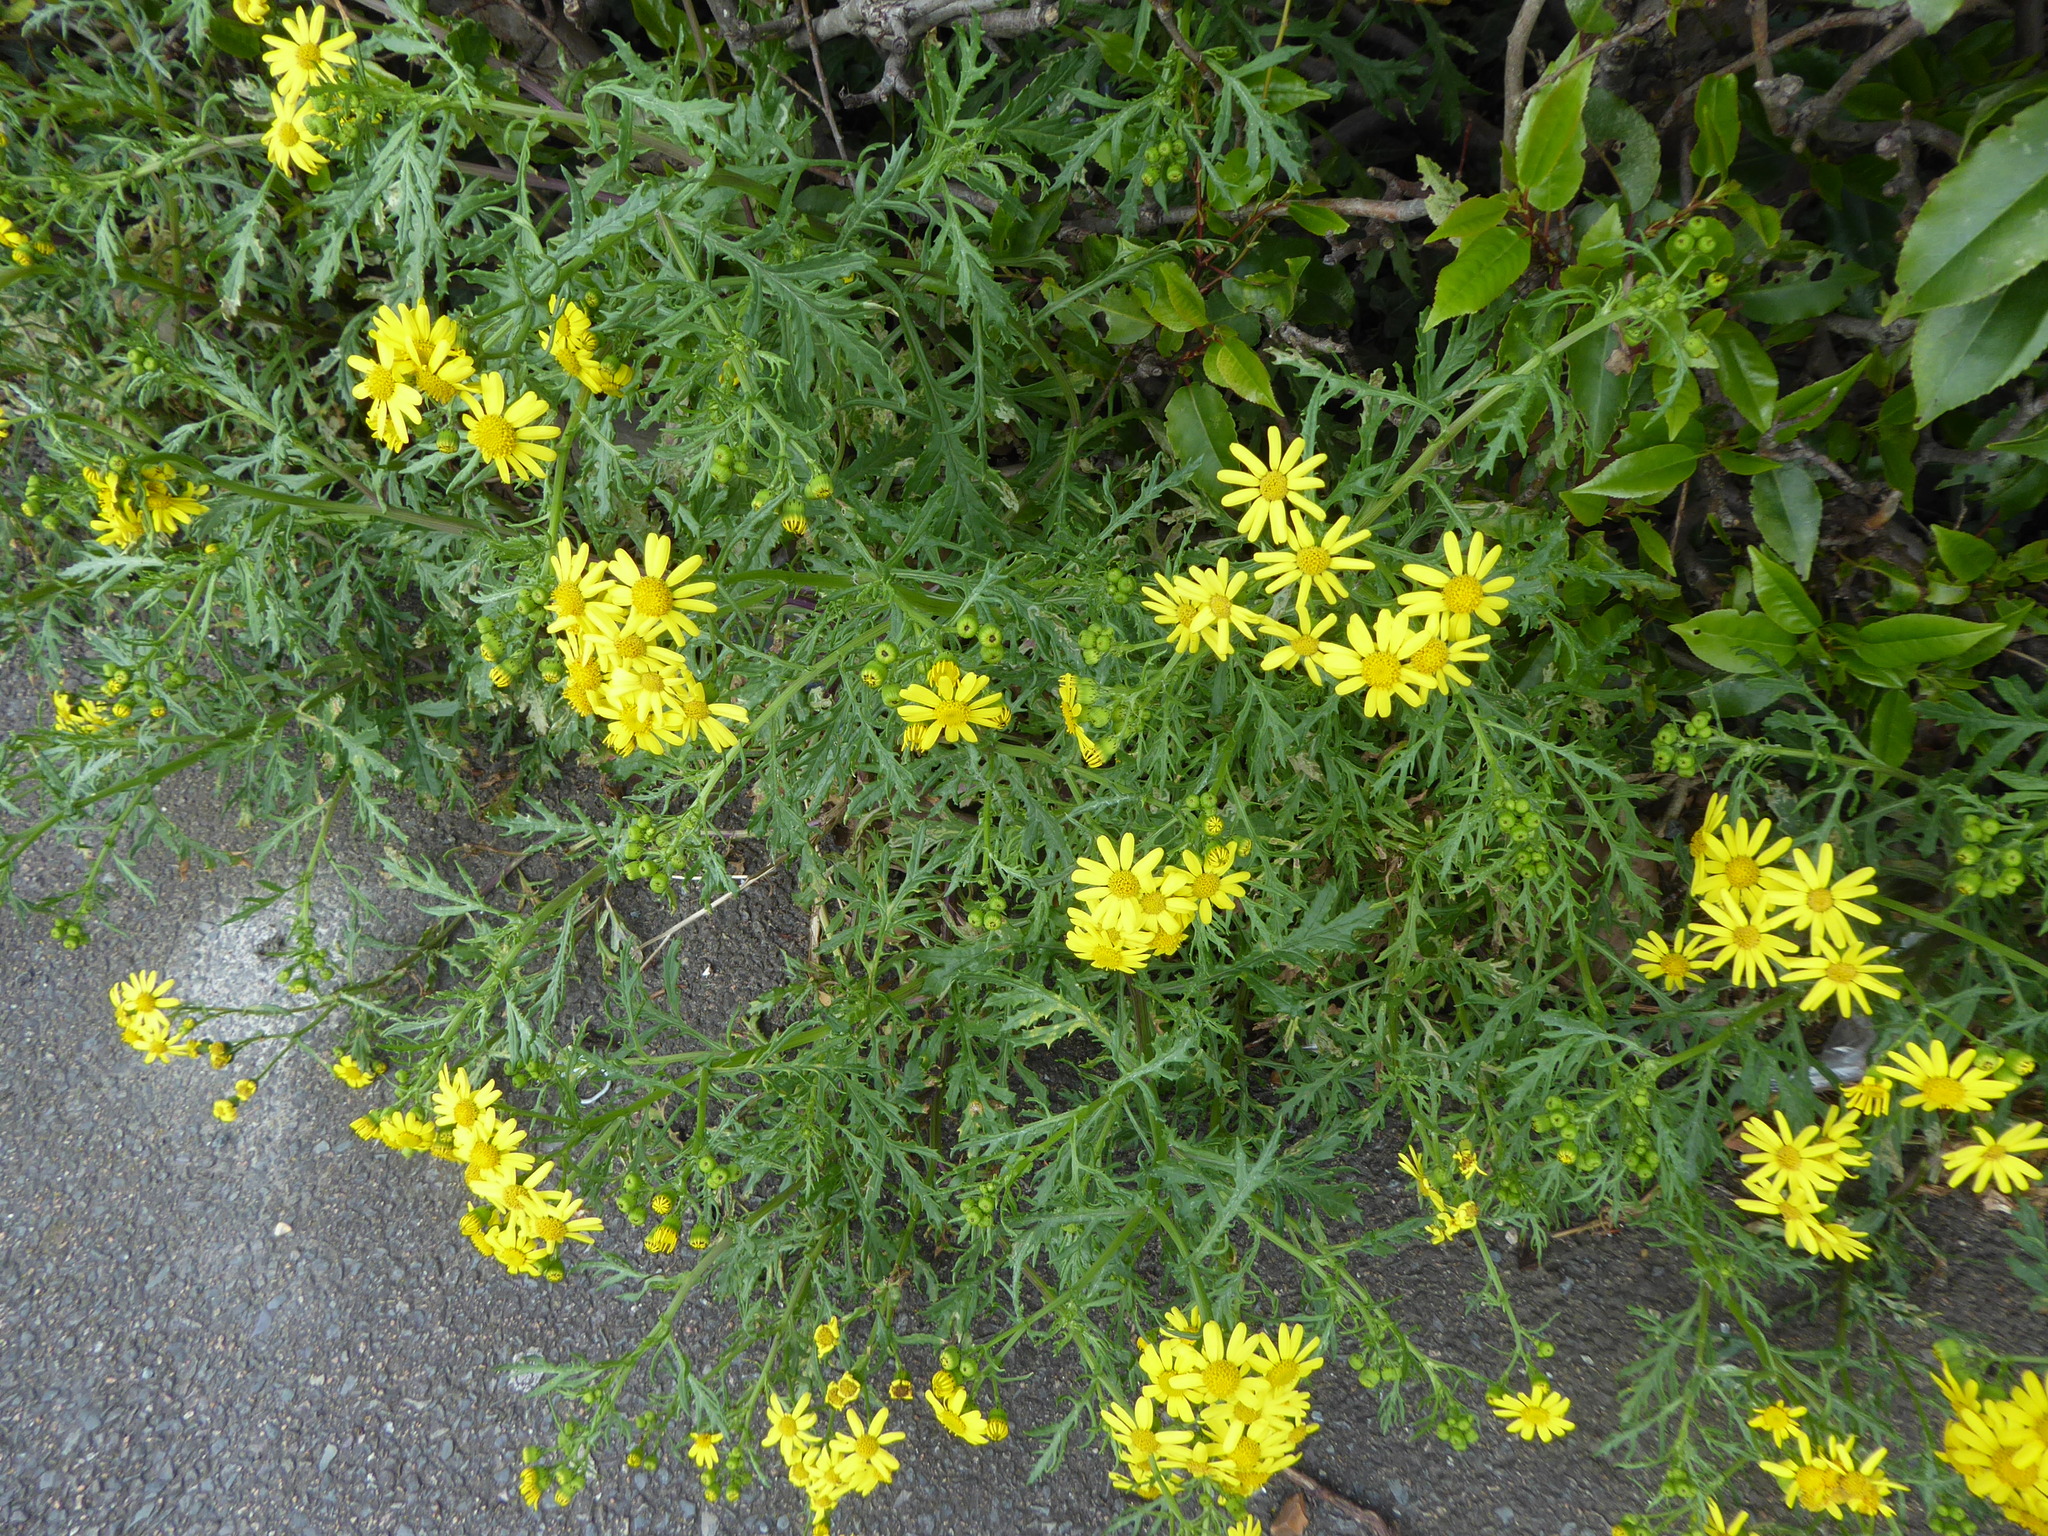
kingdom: Plantae
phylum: Tracheophyta
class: Magnoliopsida
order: Asterales
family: Asteraceae
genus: Senecio
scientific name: Senecio squalidus
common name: Oxford ragwort
